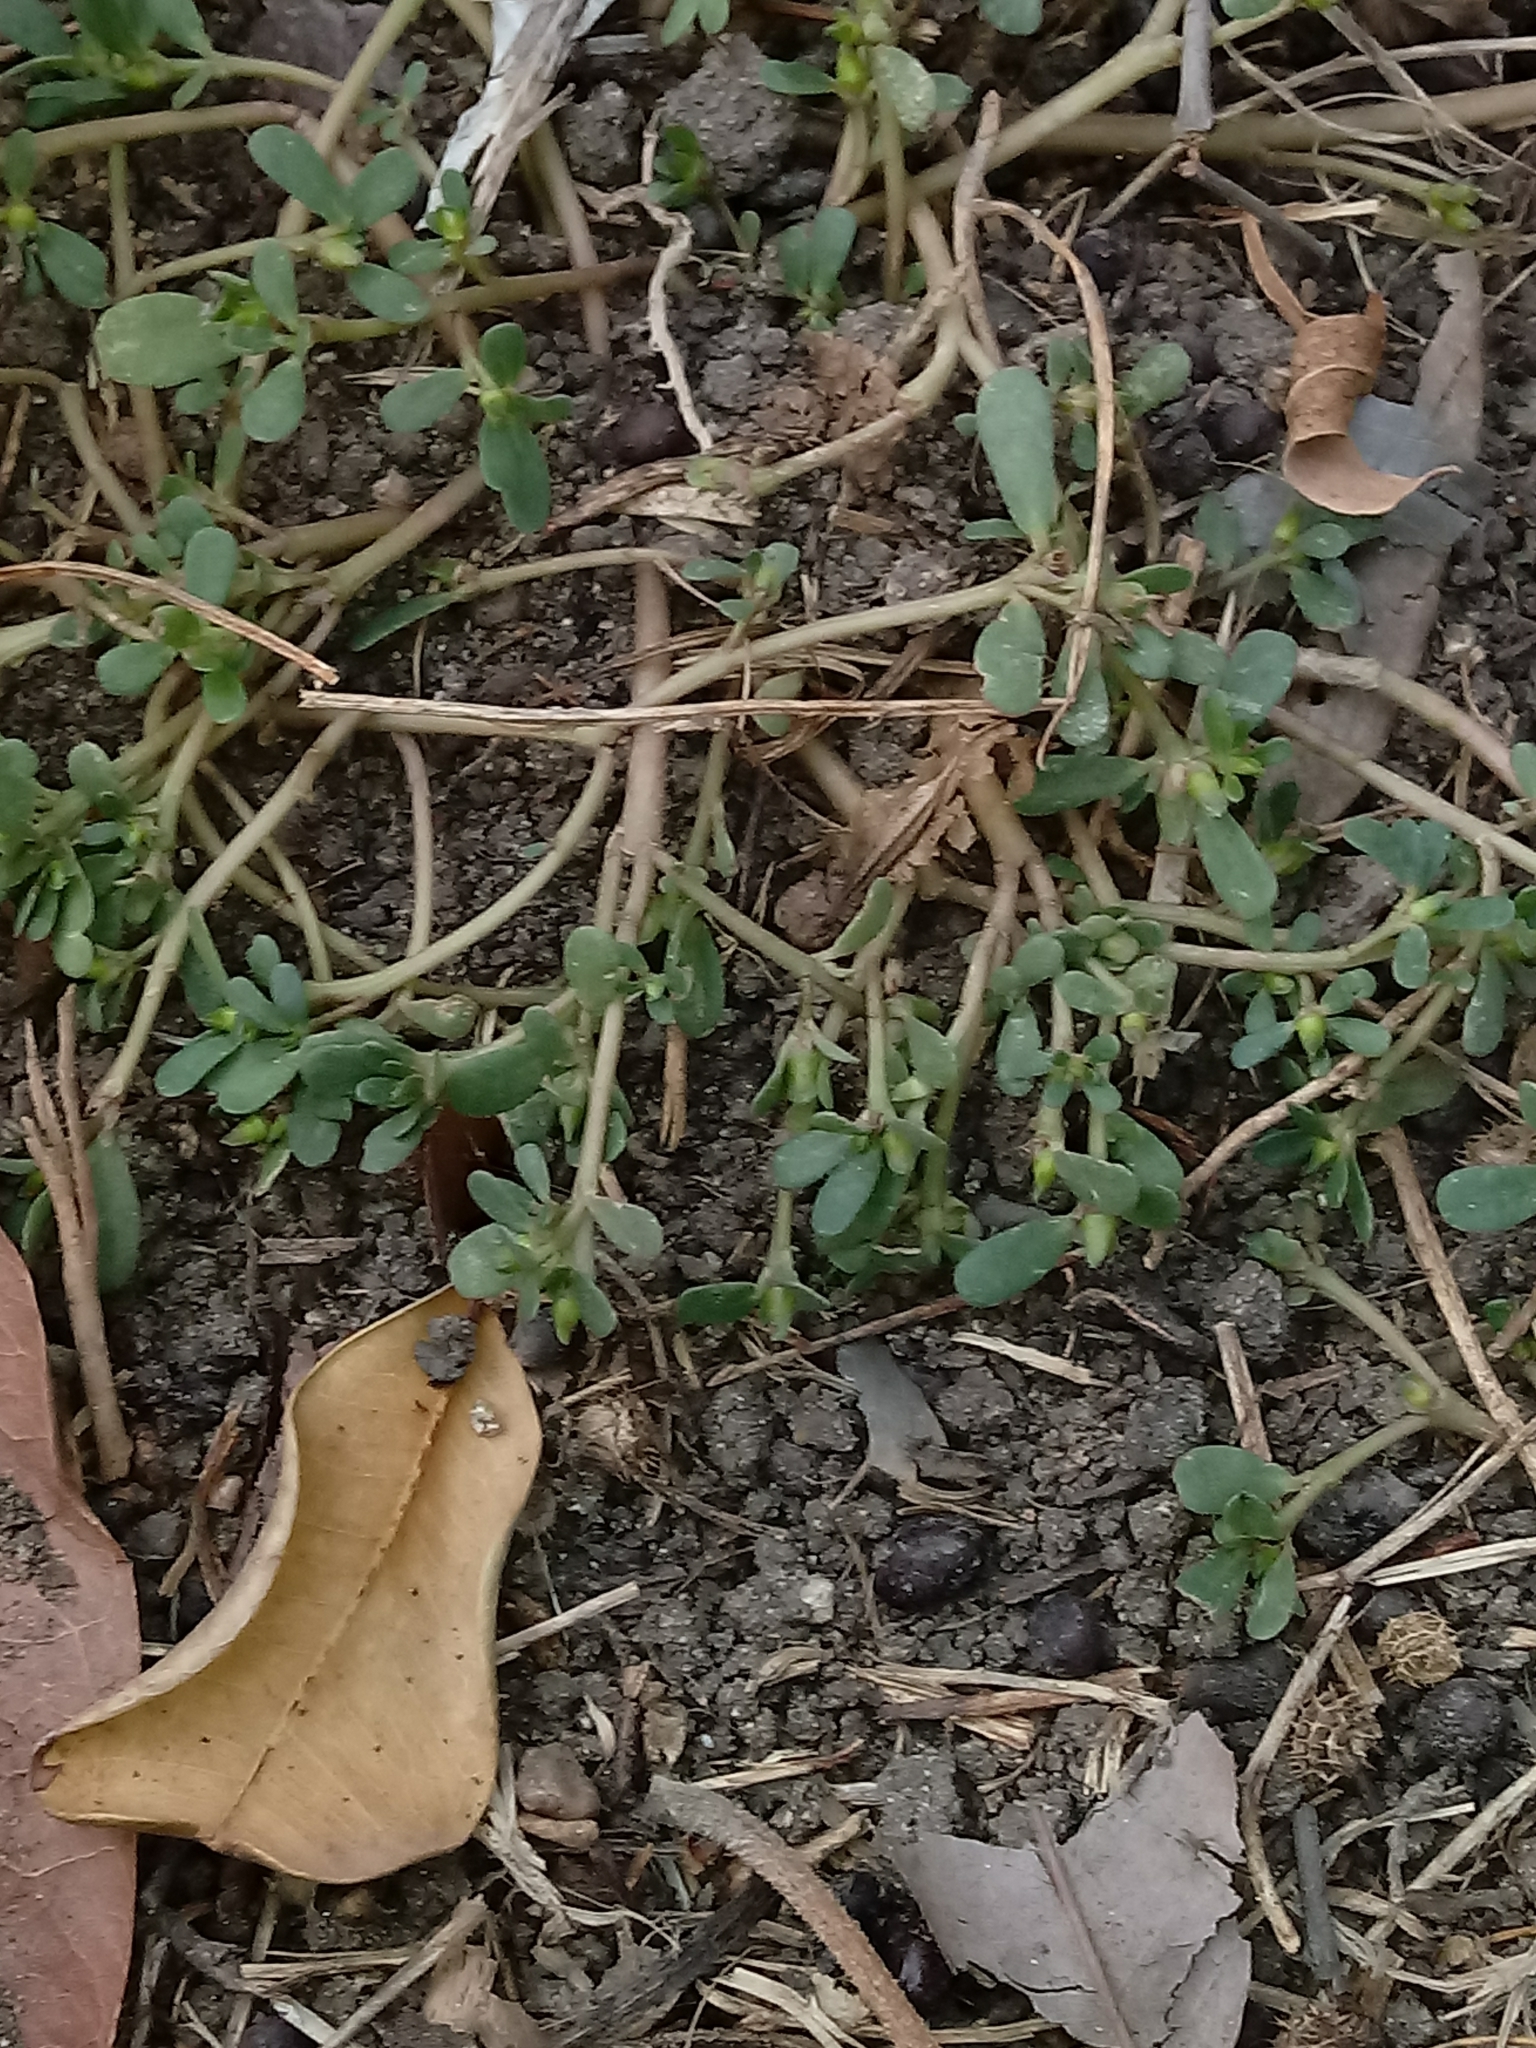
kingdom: Plantae
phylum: Tracheophyta
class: Magnoliopsida
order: Caryophyllales
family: Portulacaceae
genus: Portulaca
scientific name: Portulaca oleracea
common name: Common purslane
